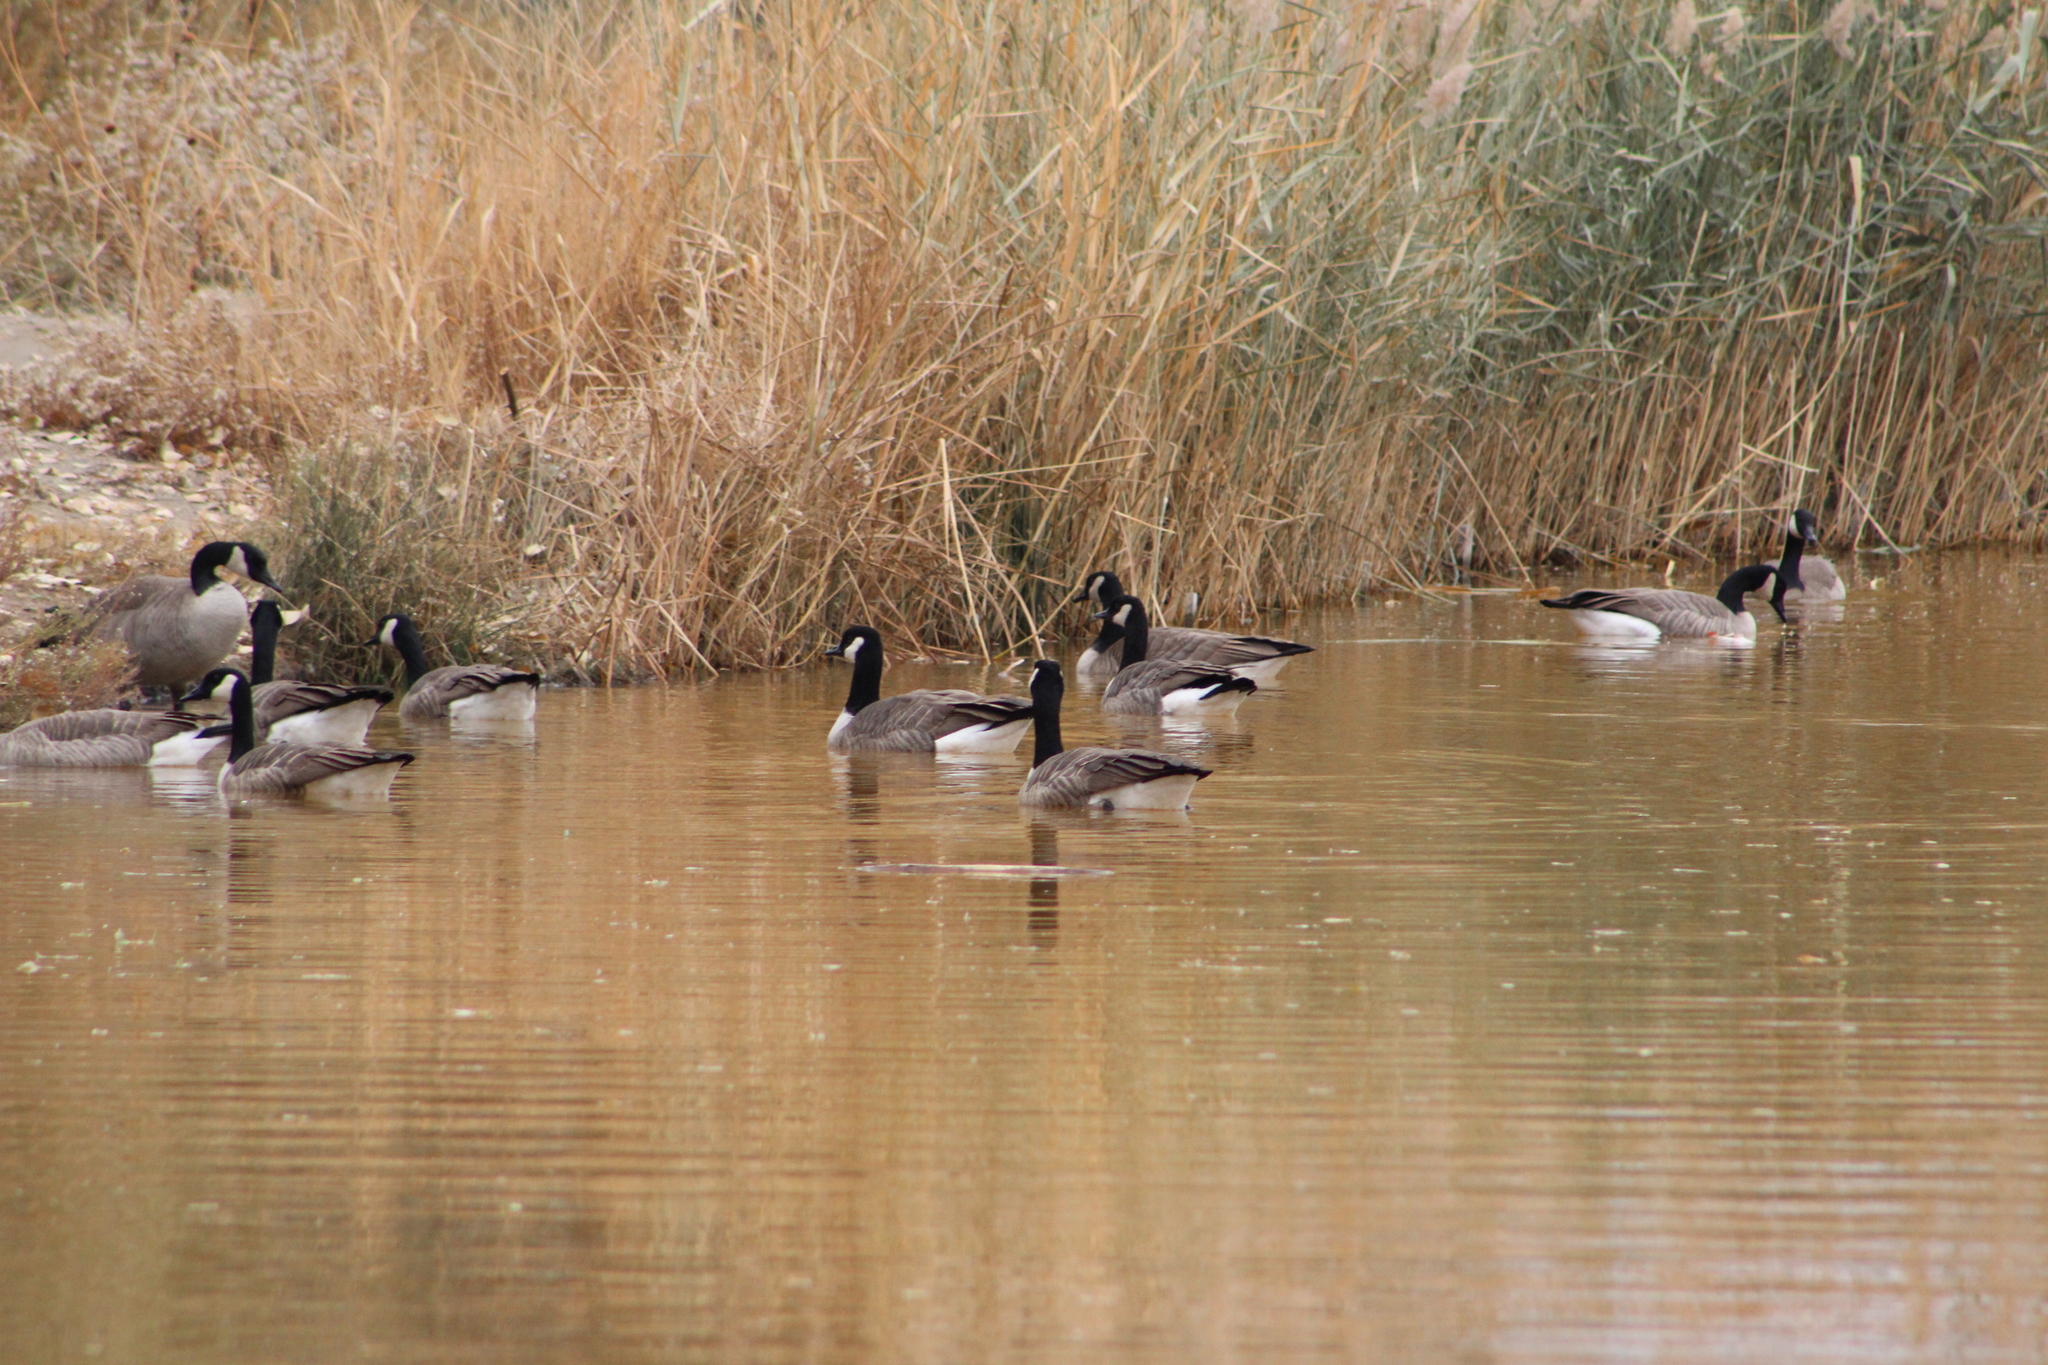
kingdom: Animalia
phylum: Chordata
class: Aves
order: Anseriformes
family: Anatidae
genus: Branta
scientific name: Branta canadensis
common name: Canada goose
